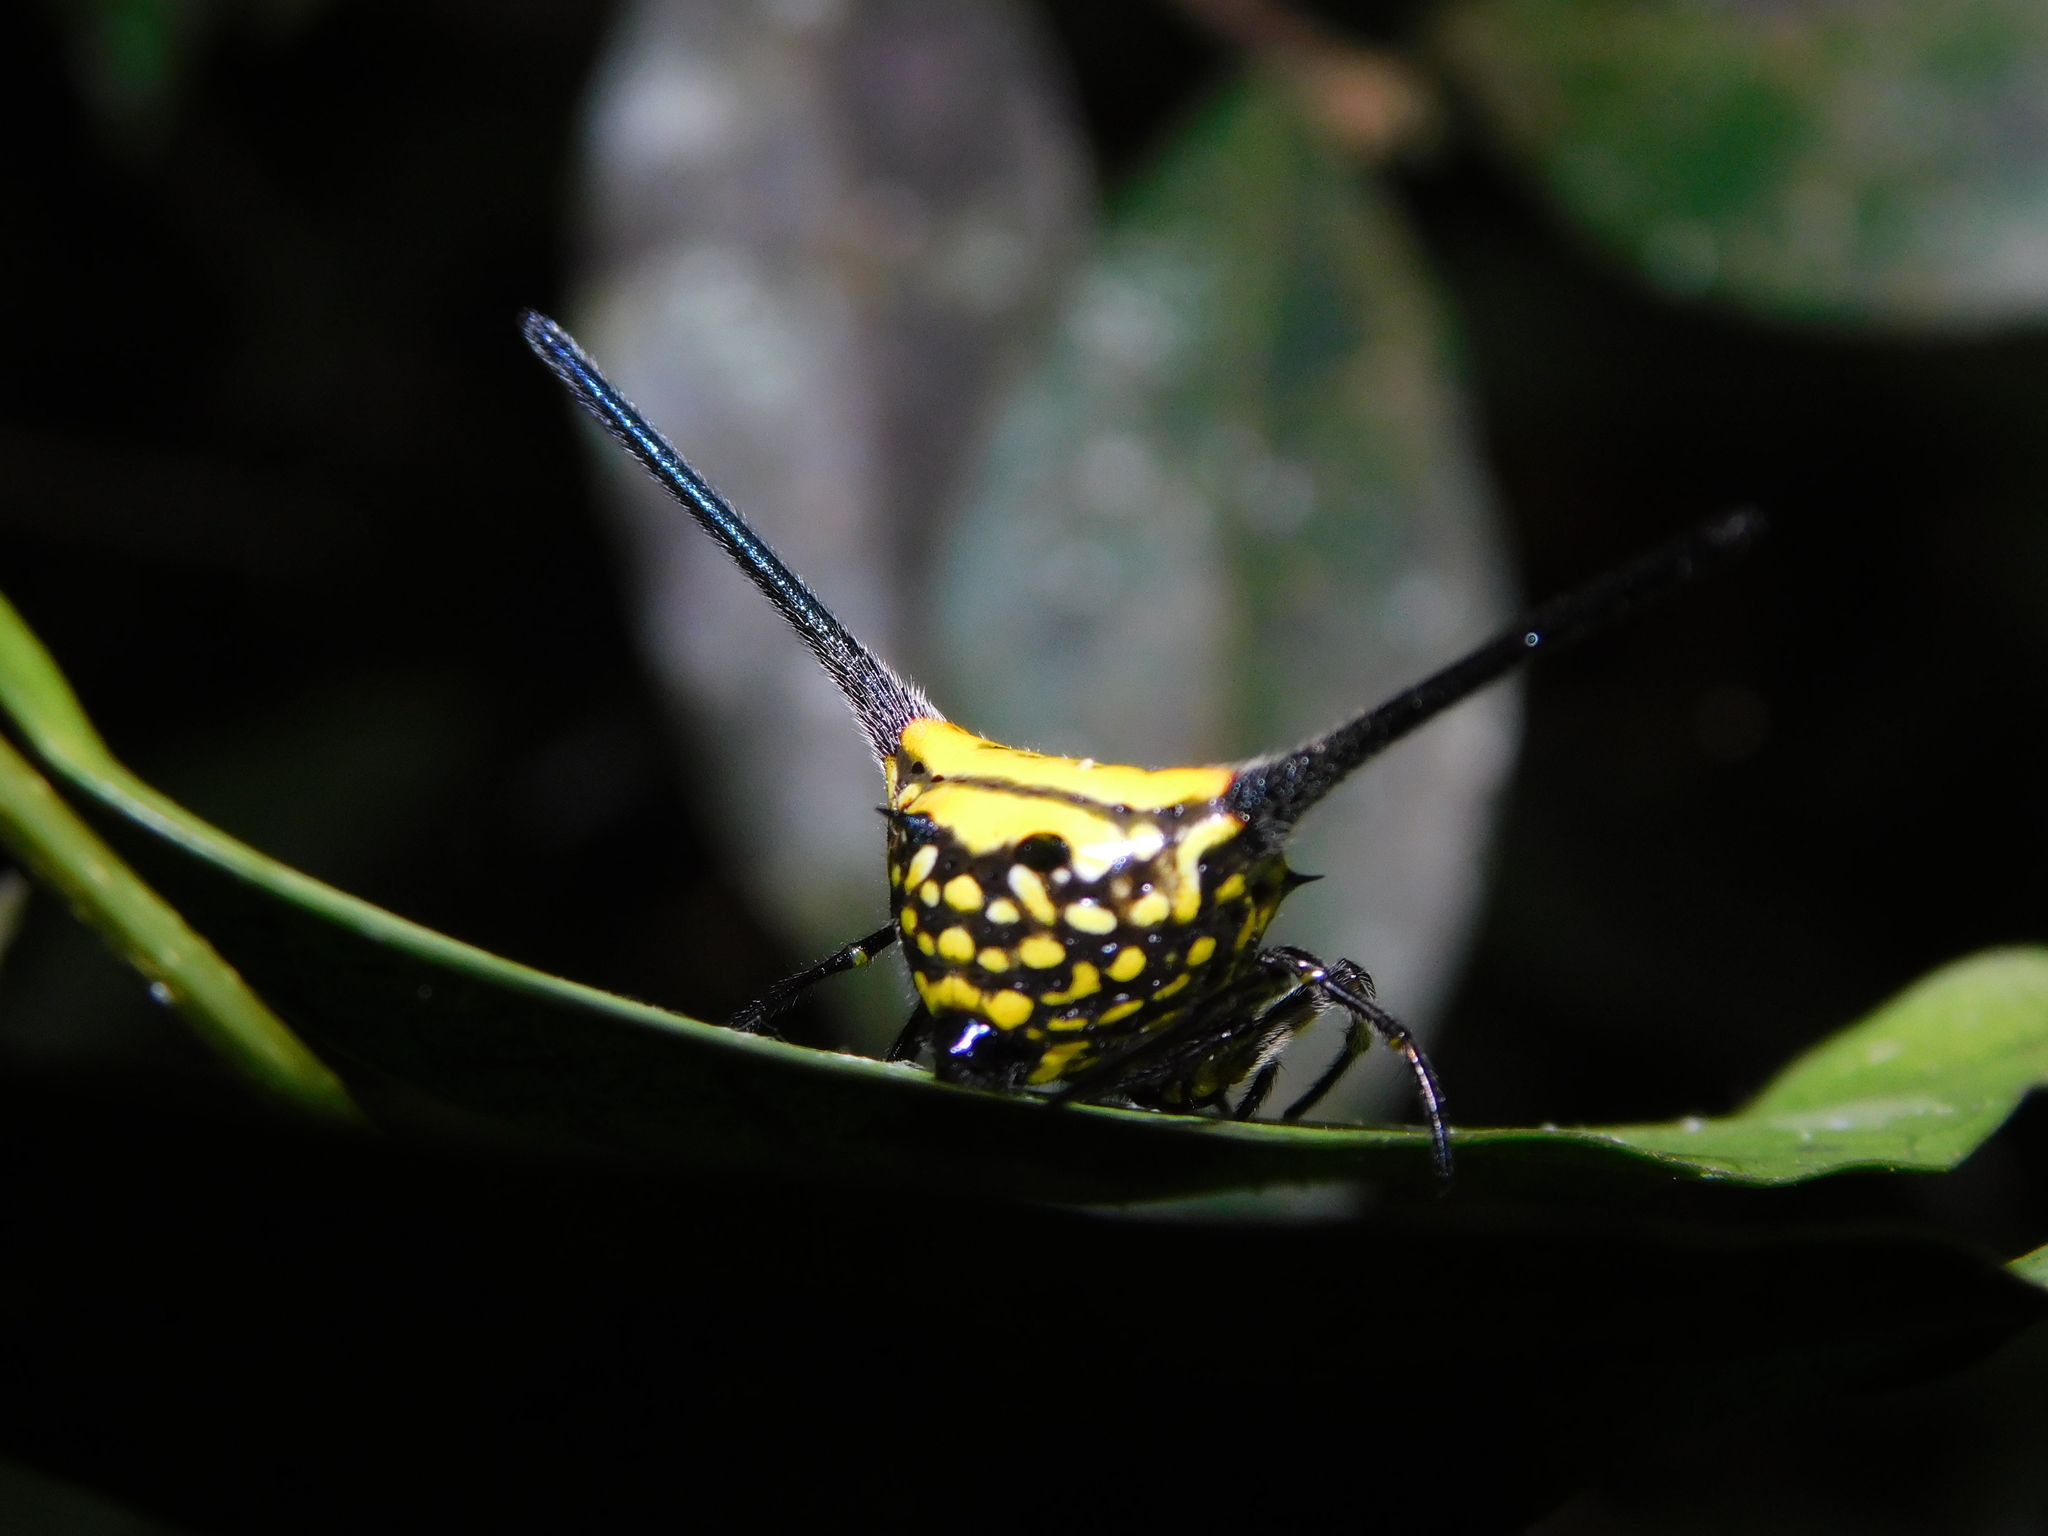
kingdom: Animalia
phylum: Arthropoda
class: Arachnida
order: Araneae
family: Araneidae
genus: Gasteracantha
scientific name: Gasteracantha dalyi
